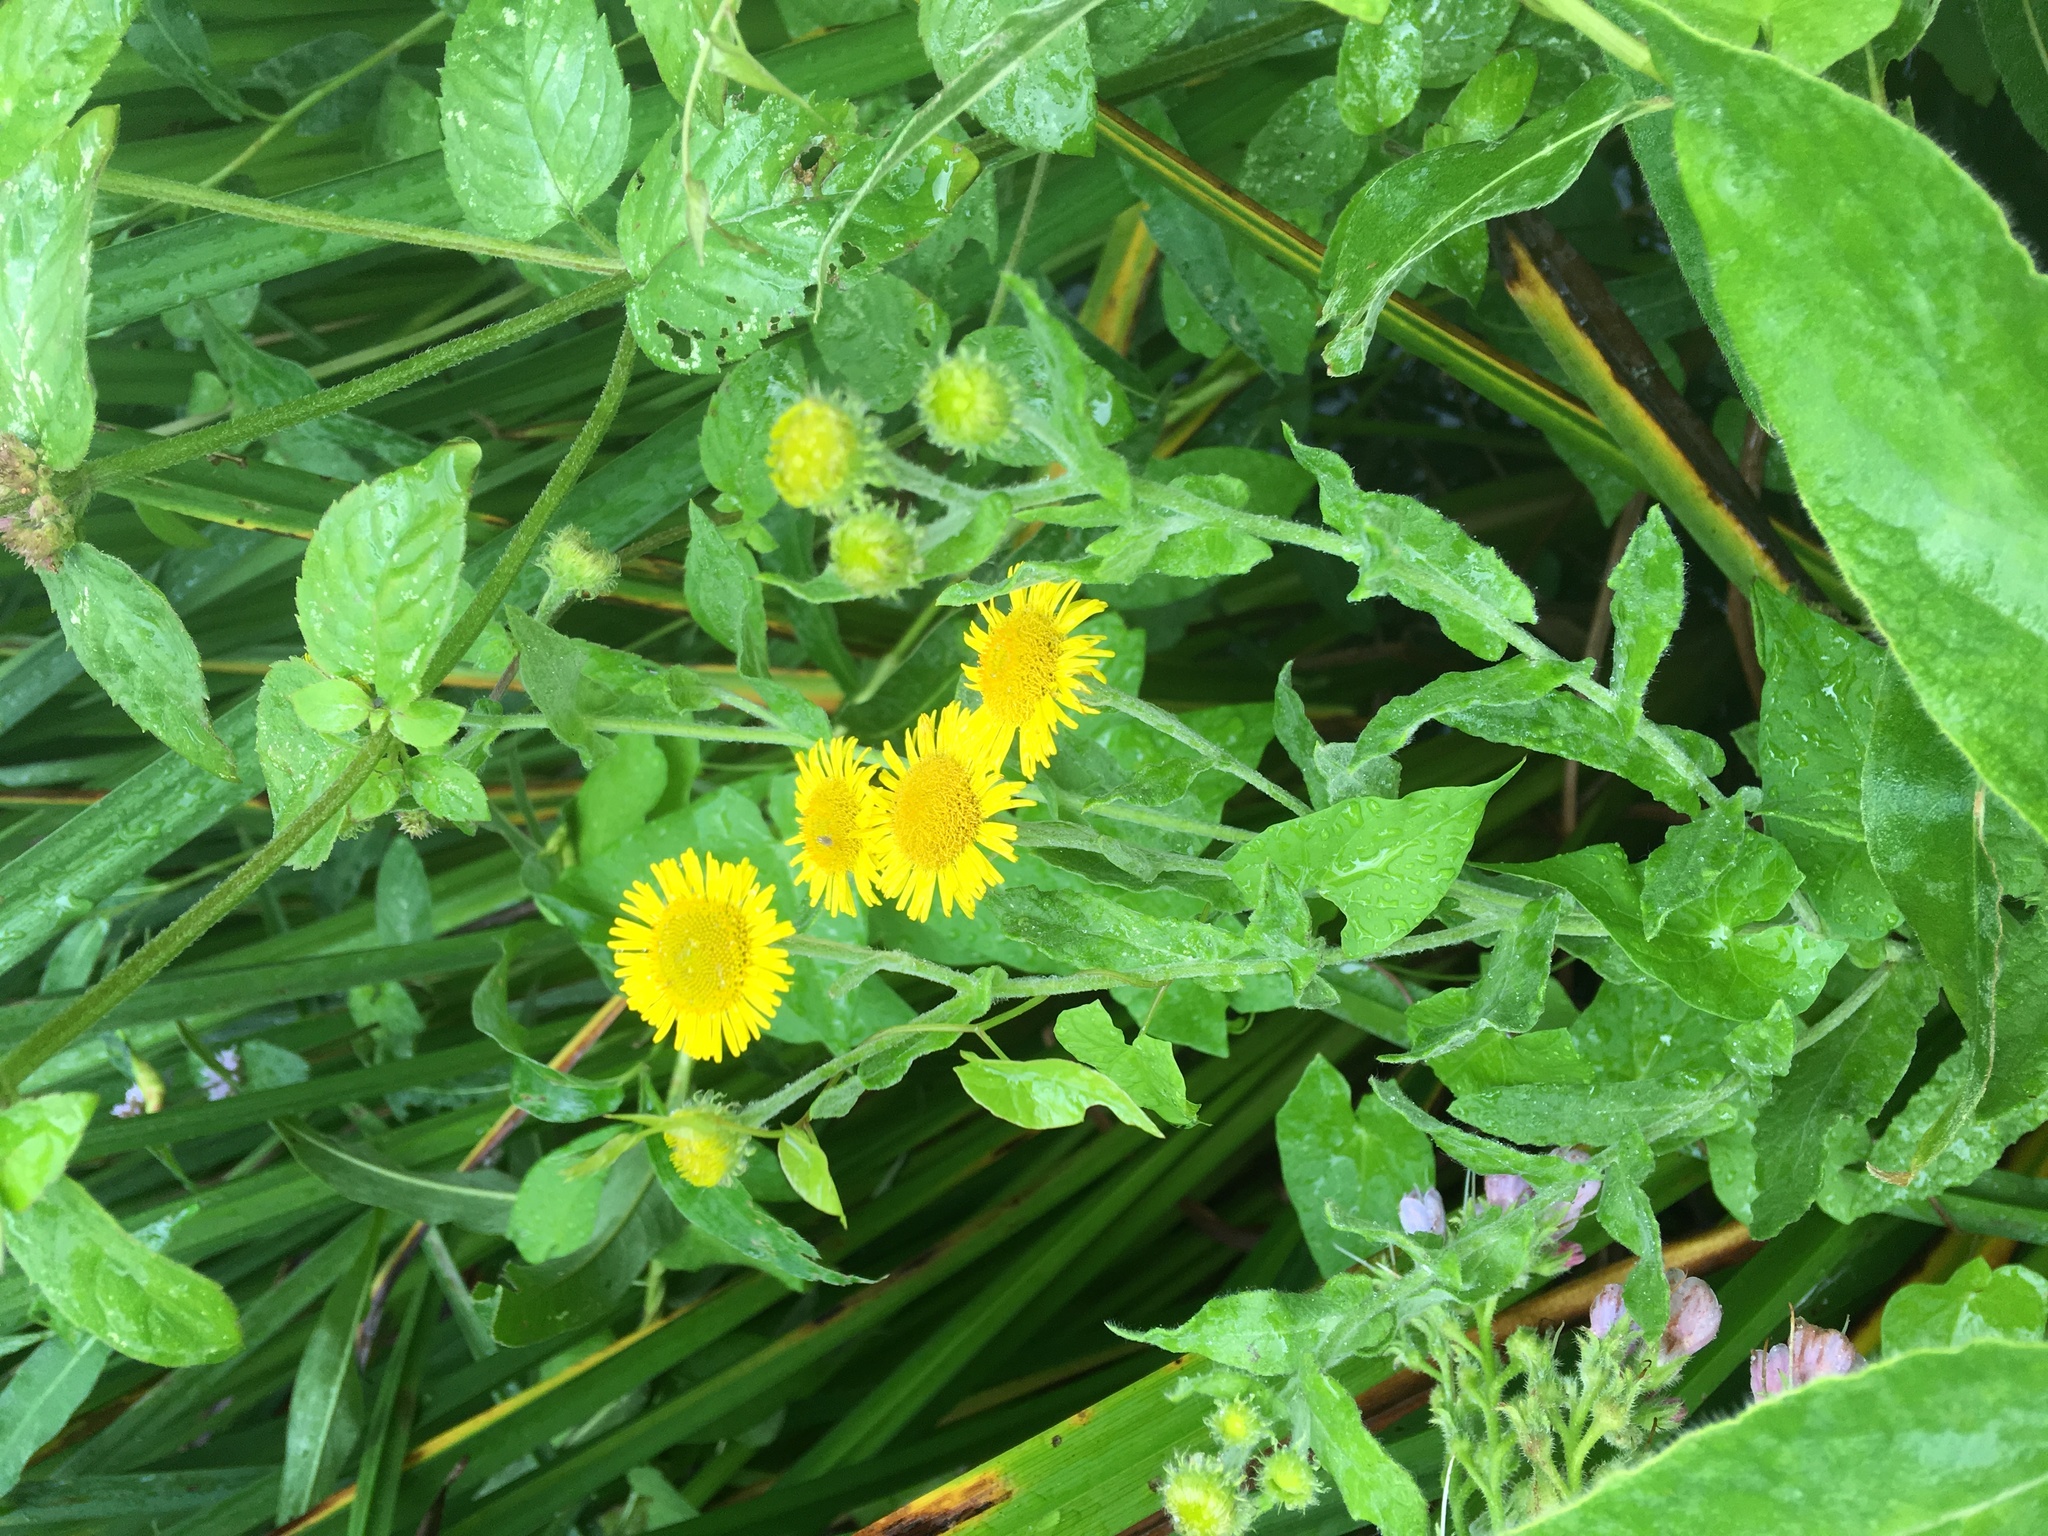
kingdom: Plantae
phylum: Tracheophyta
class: Magnoliopsida
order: Asterales
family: Asteraceae
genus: Pulicaria
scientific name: Pulicaria dysenterica
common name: Common fleabane
